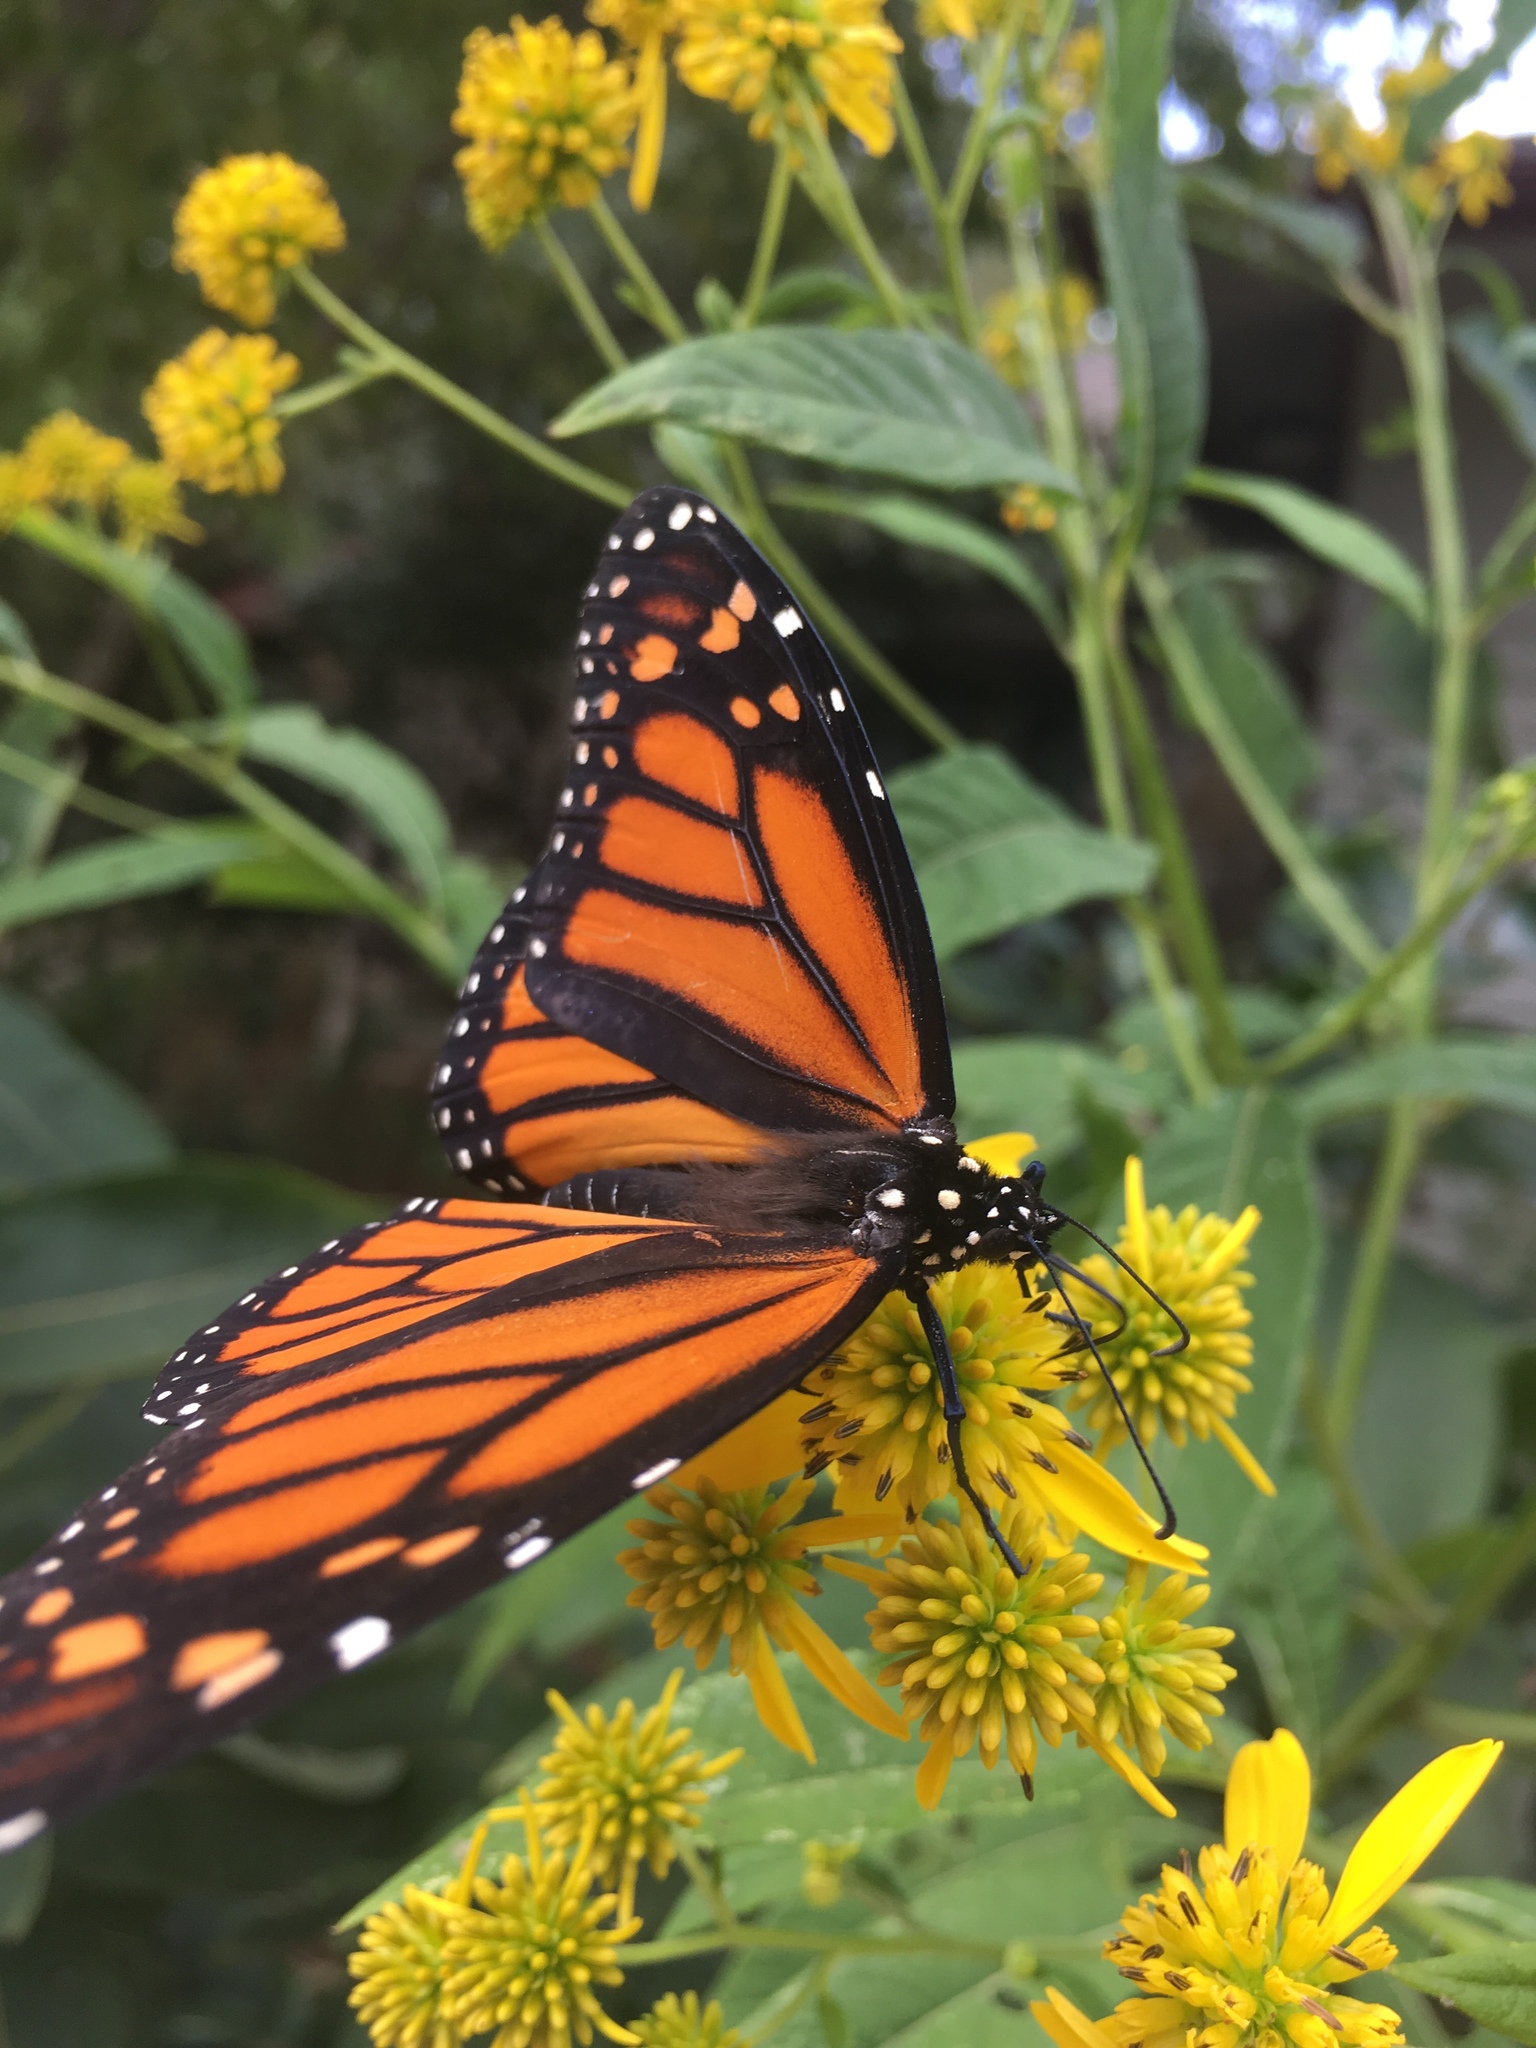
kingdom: Animalia
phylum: Arthropoda
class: Insecta
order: Lepidoptera
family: Nymphalidae
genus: Danaus
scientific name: Danaus plexippus
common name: Monarch
